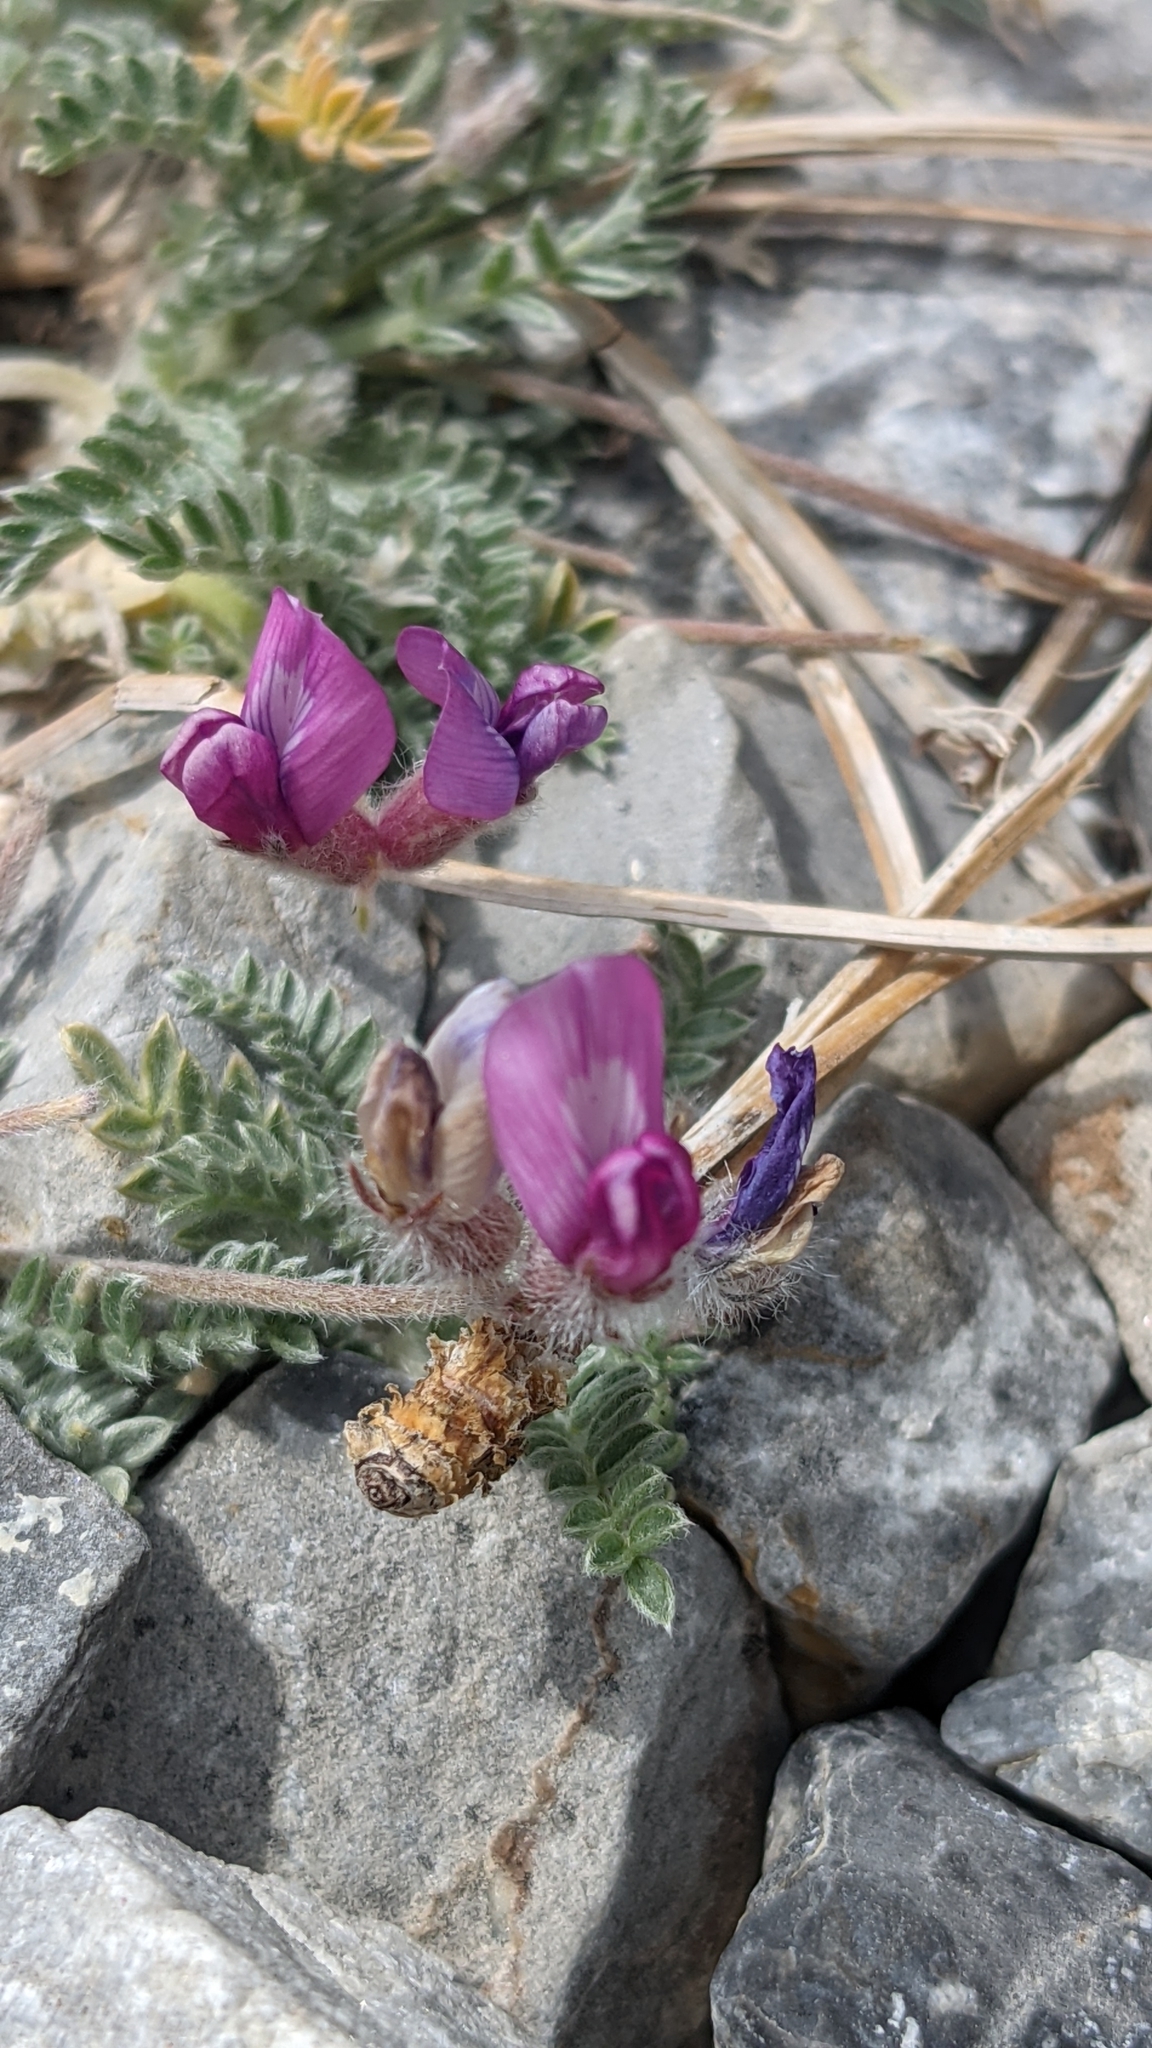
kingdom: Plantae
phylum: Tracheophyta
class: Magnoliopsida
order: Fabales
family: Fabaceae
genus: Oxytropis
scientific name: Oxytropis oreophila
